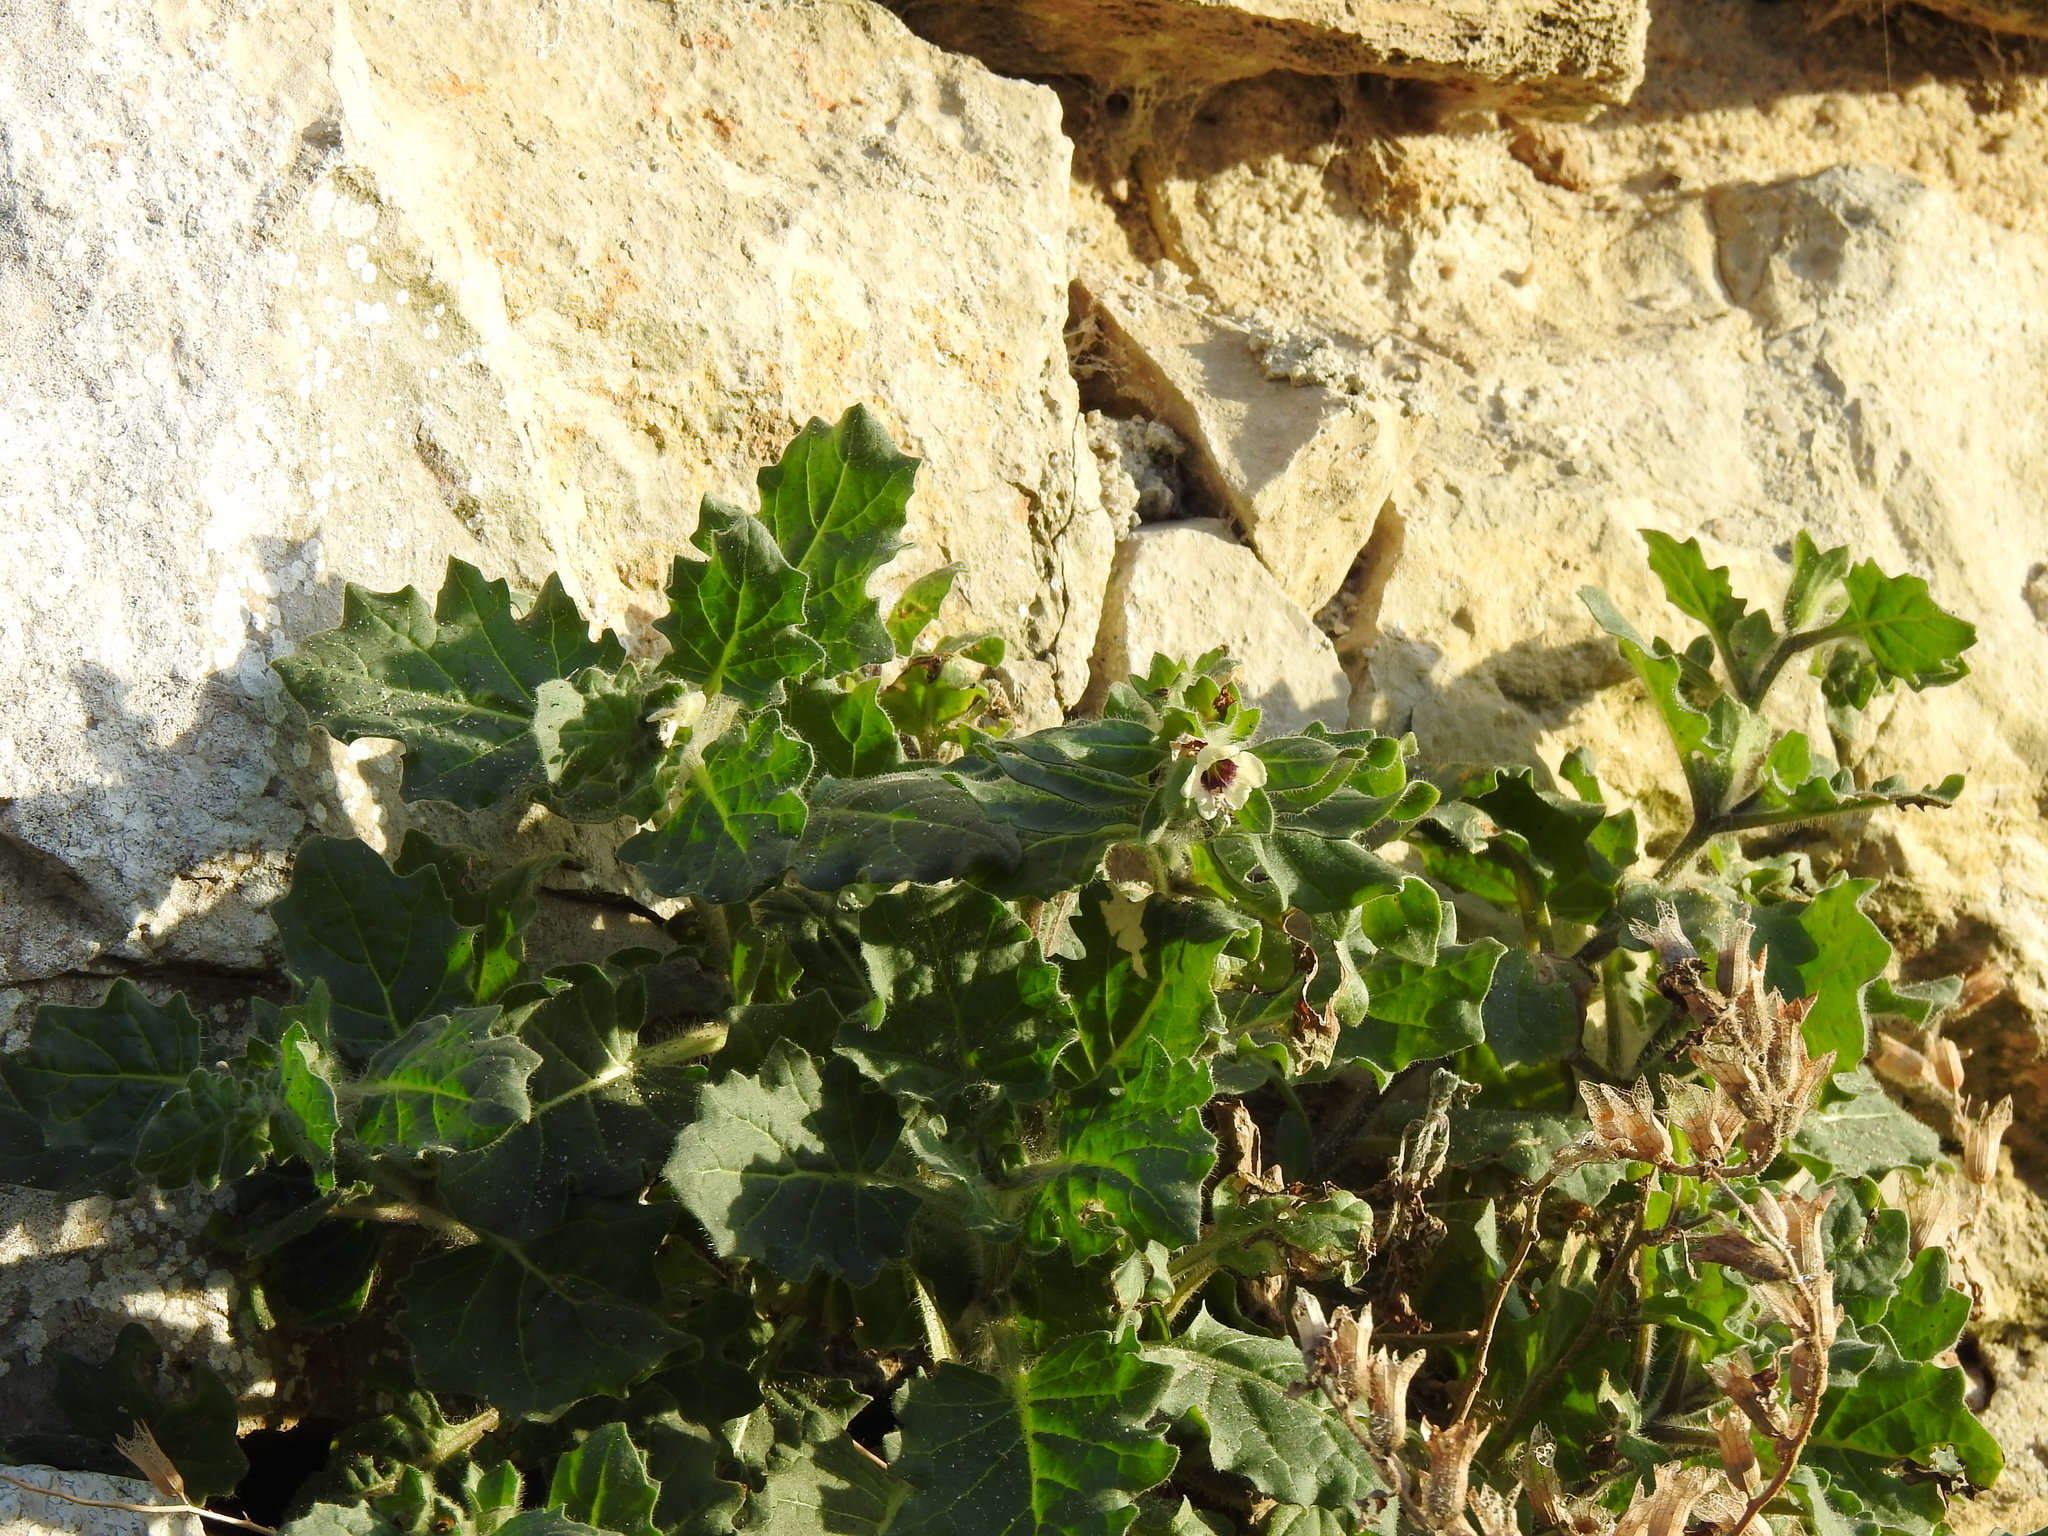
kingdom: Plantae
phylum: Tracheophyta
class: Magnoliopsida
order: Solanales
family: Solanaceae
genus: Hyoscyamus
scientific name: Hyoscyamus albus
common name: White henbane
